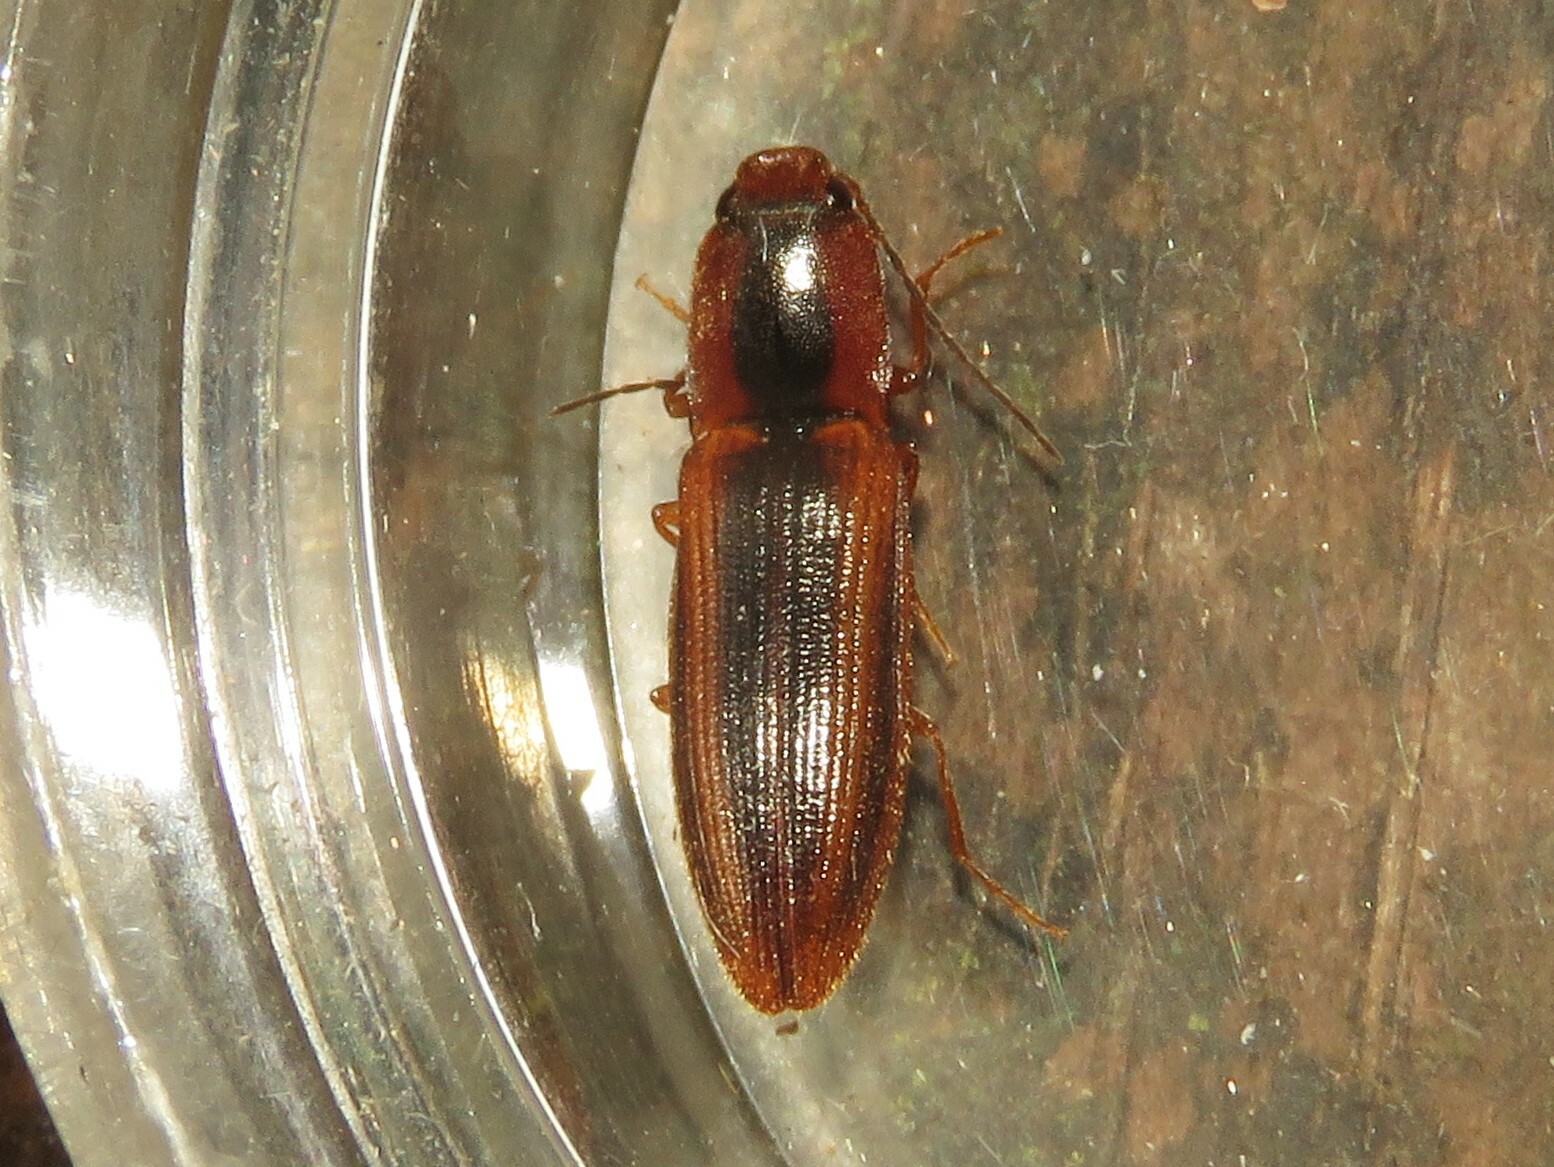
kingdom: Animalia
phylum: Arthropoda
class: Insecta
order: Coleoptera
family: Elateridae
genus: Athous
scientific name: Athous vittiger
